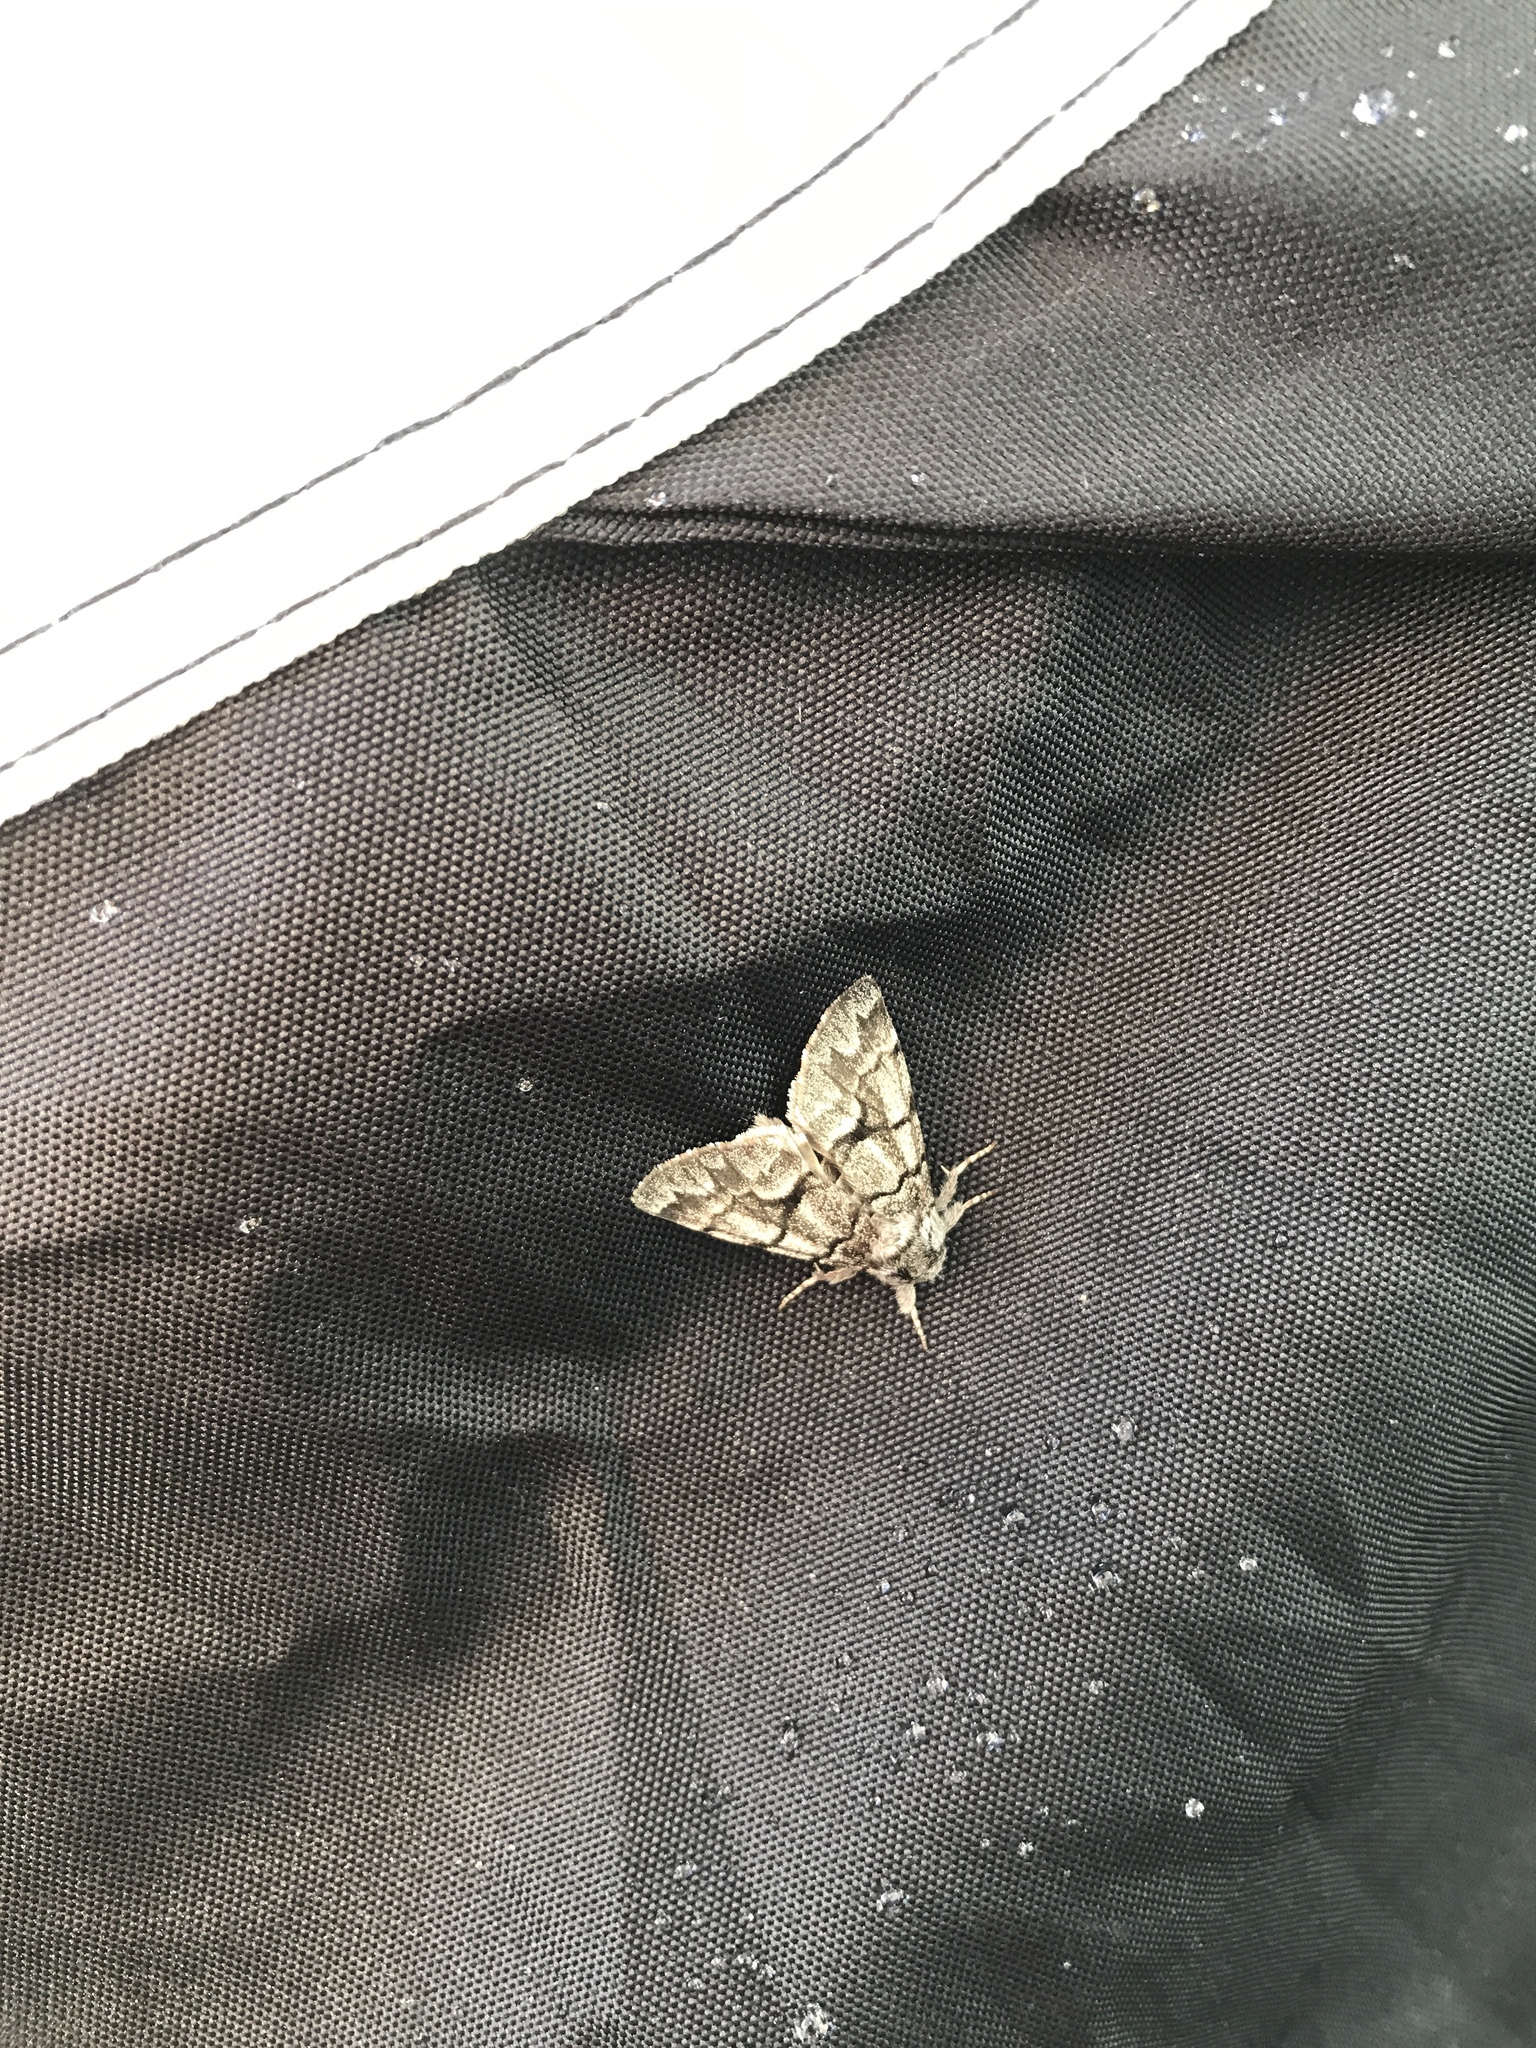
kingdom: Animalia
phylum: Arthropoda
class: Insecta
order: Lepidoptera
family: Noctuidae
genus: Panthea
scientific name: Panthea furcilla
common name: Eastern panthea moth
